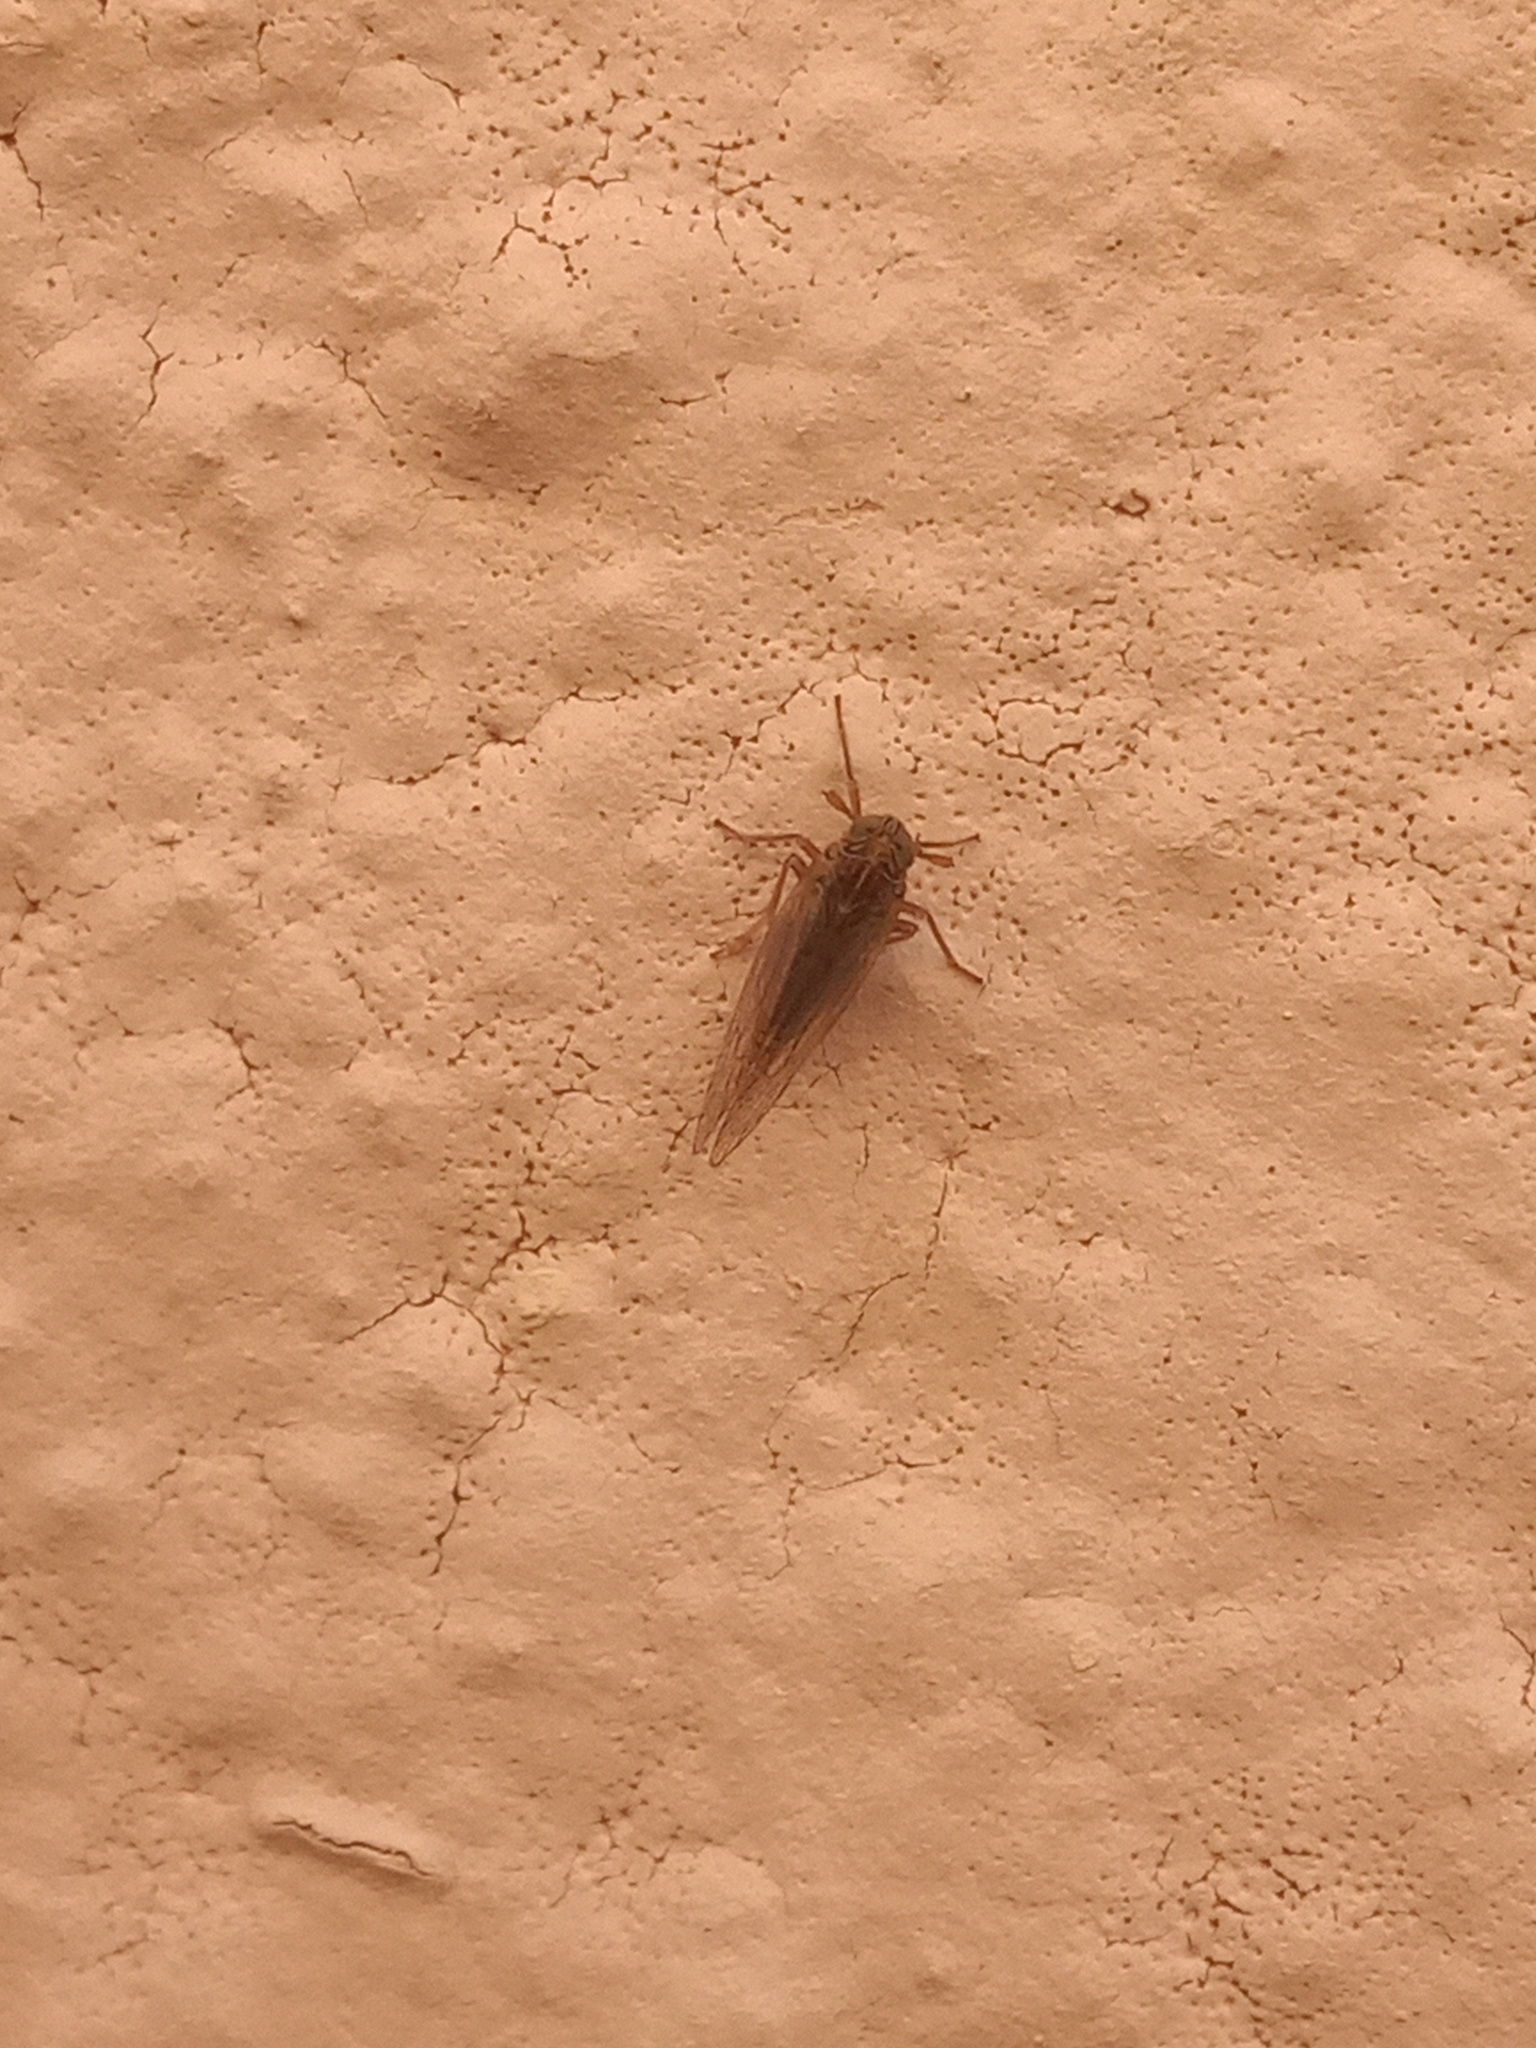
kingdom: Animalia
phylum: Arthropoda
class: Insecta
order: Hemiptera
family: Delphacidae
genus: Chionomus
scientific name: Chionomus
